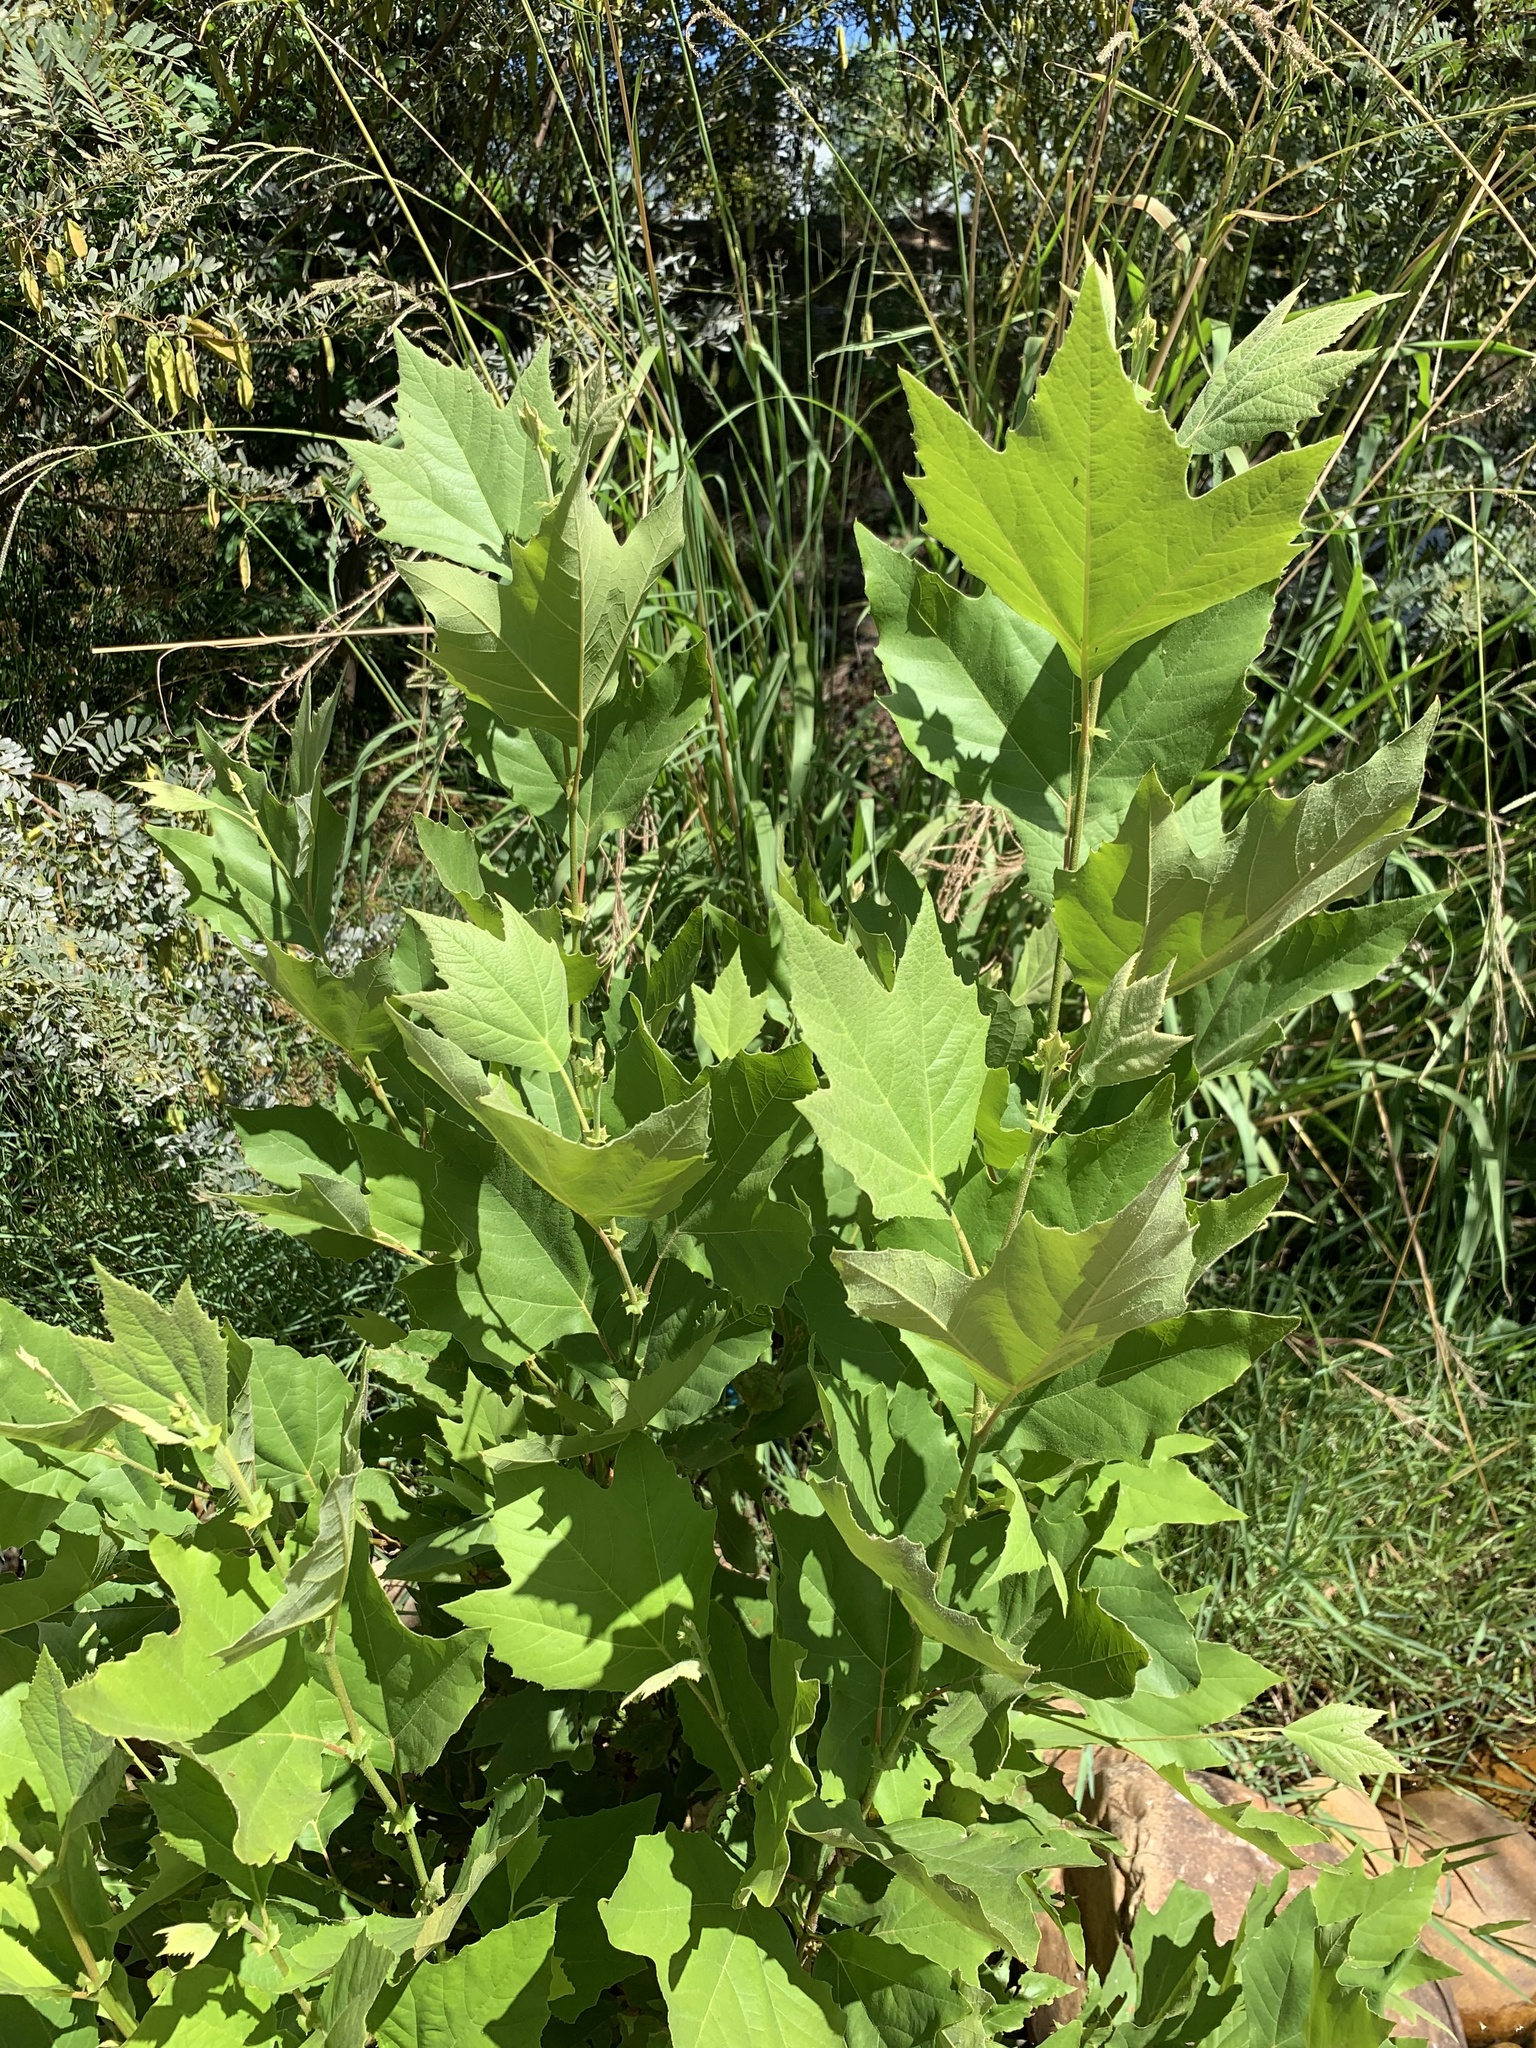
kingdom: Plantae
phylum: Tracheophyta
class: Magnoliopsida
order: Proteales
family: Platanaceae
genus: Platanus
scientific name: Platanus hispanica
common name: London plane
